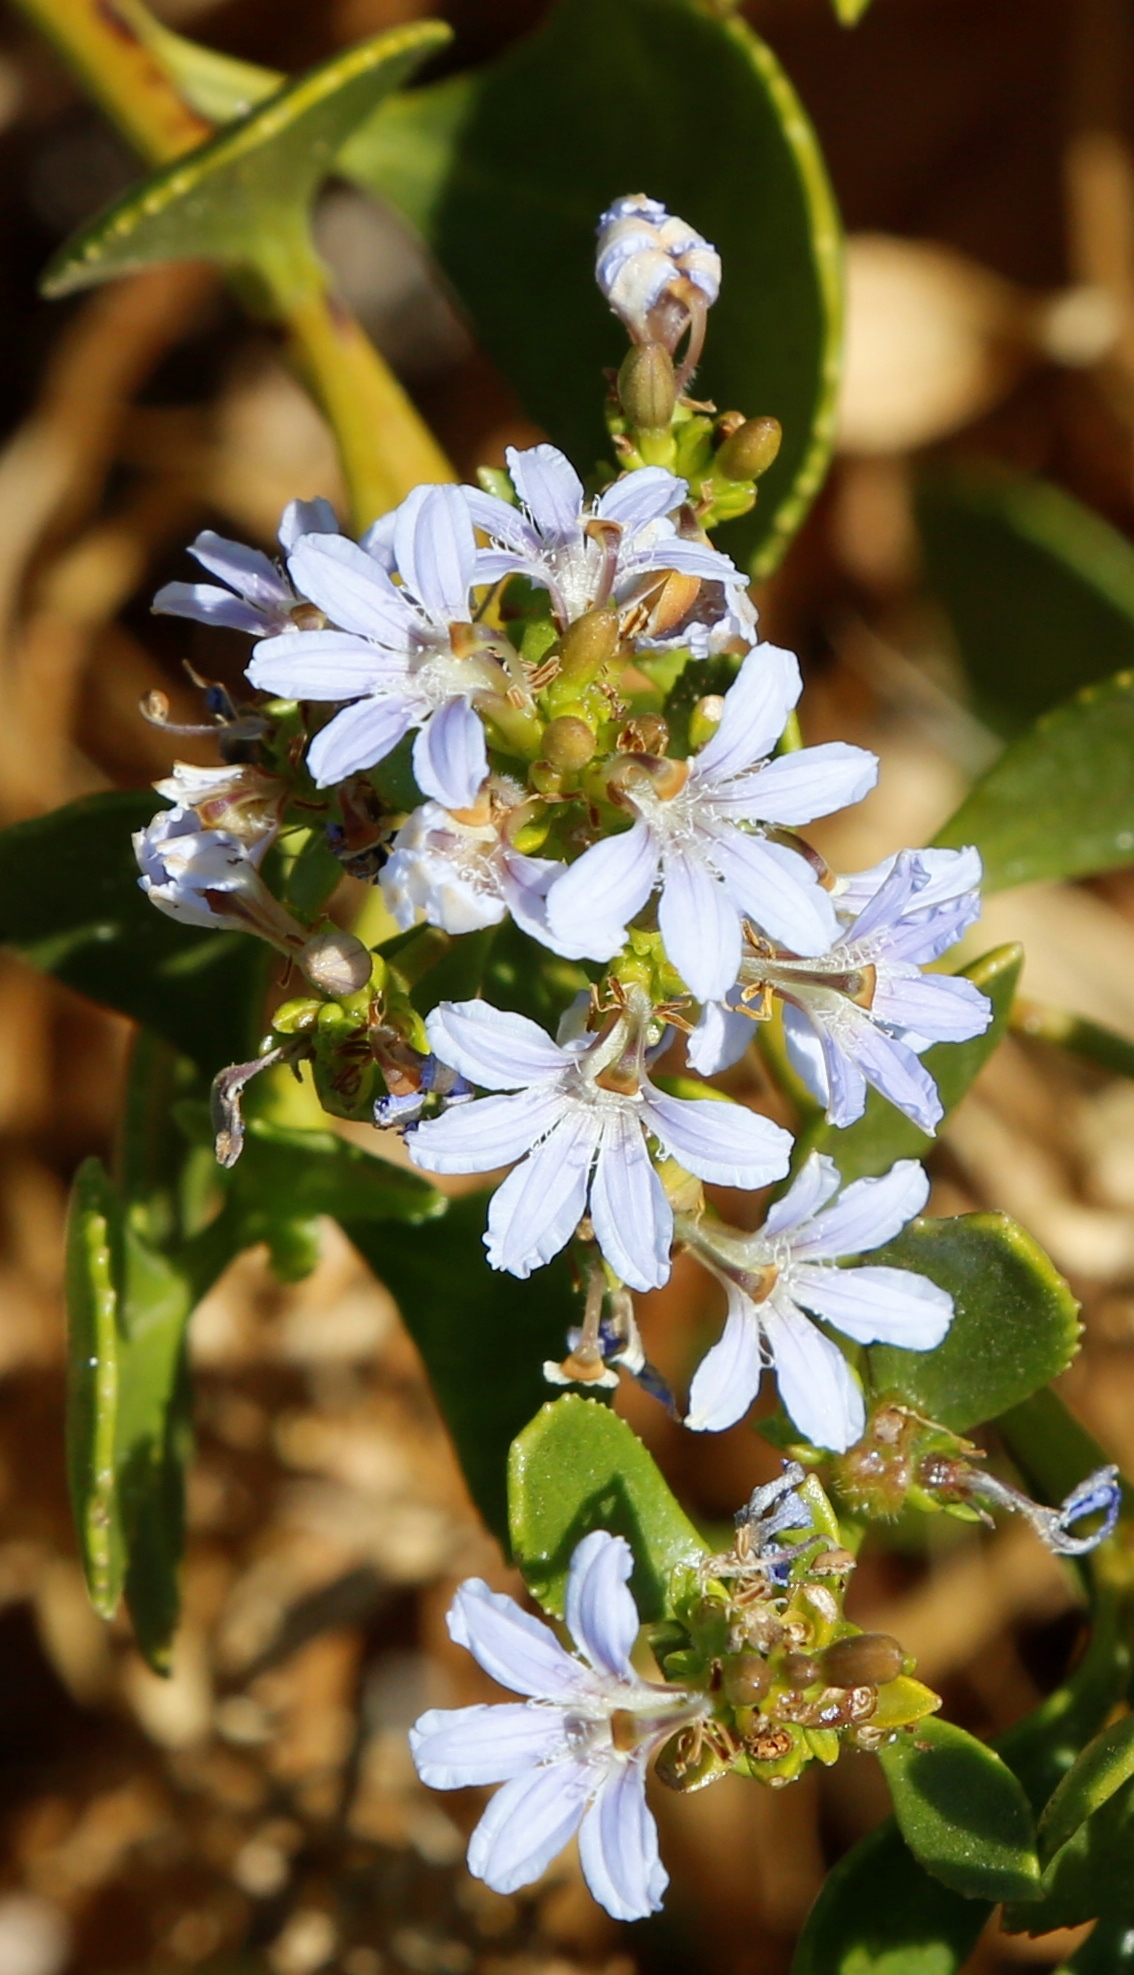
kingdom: Plantae
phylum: Tracheophyta
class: Magnoliopsida
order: Asterales
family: Goodeniaceae
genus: Scaevola
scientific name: Scaevola crassifolia
